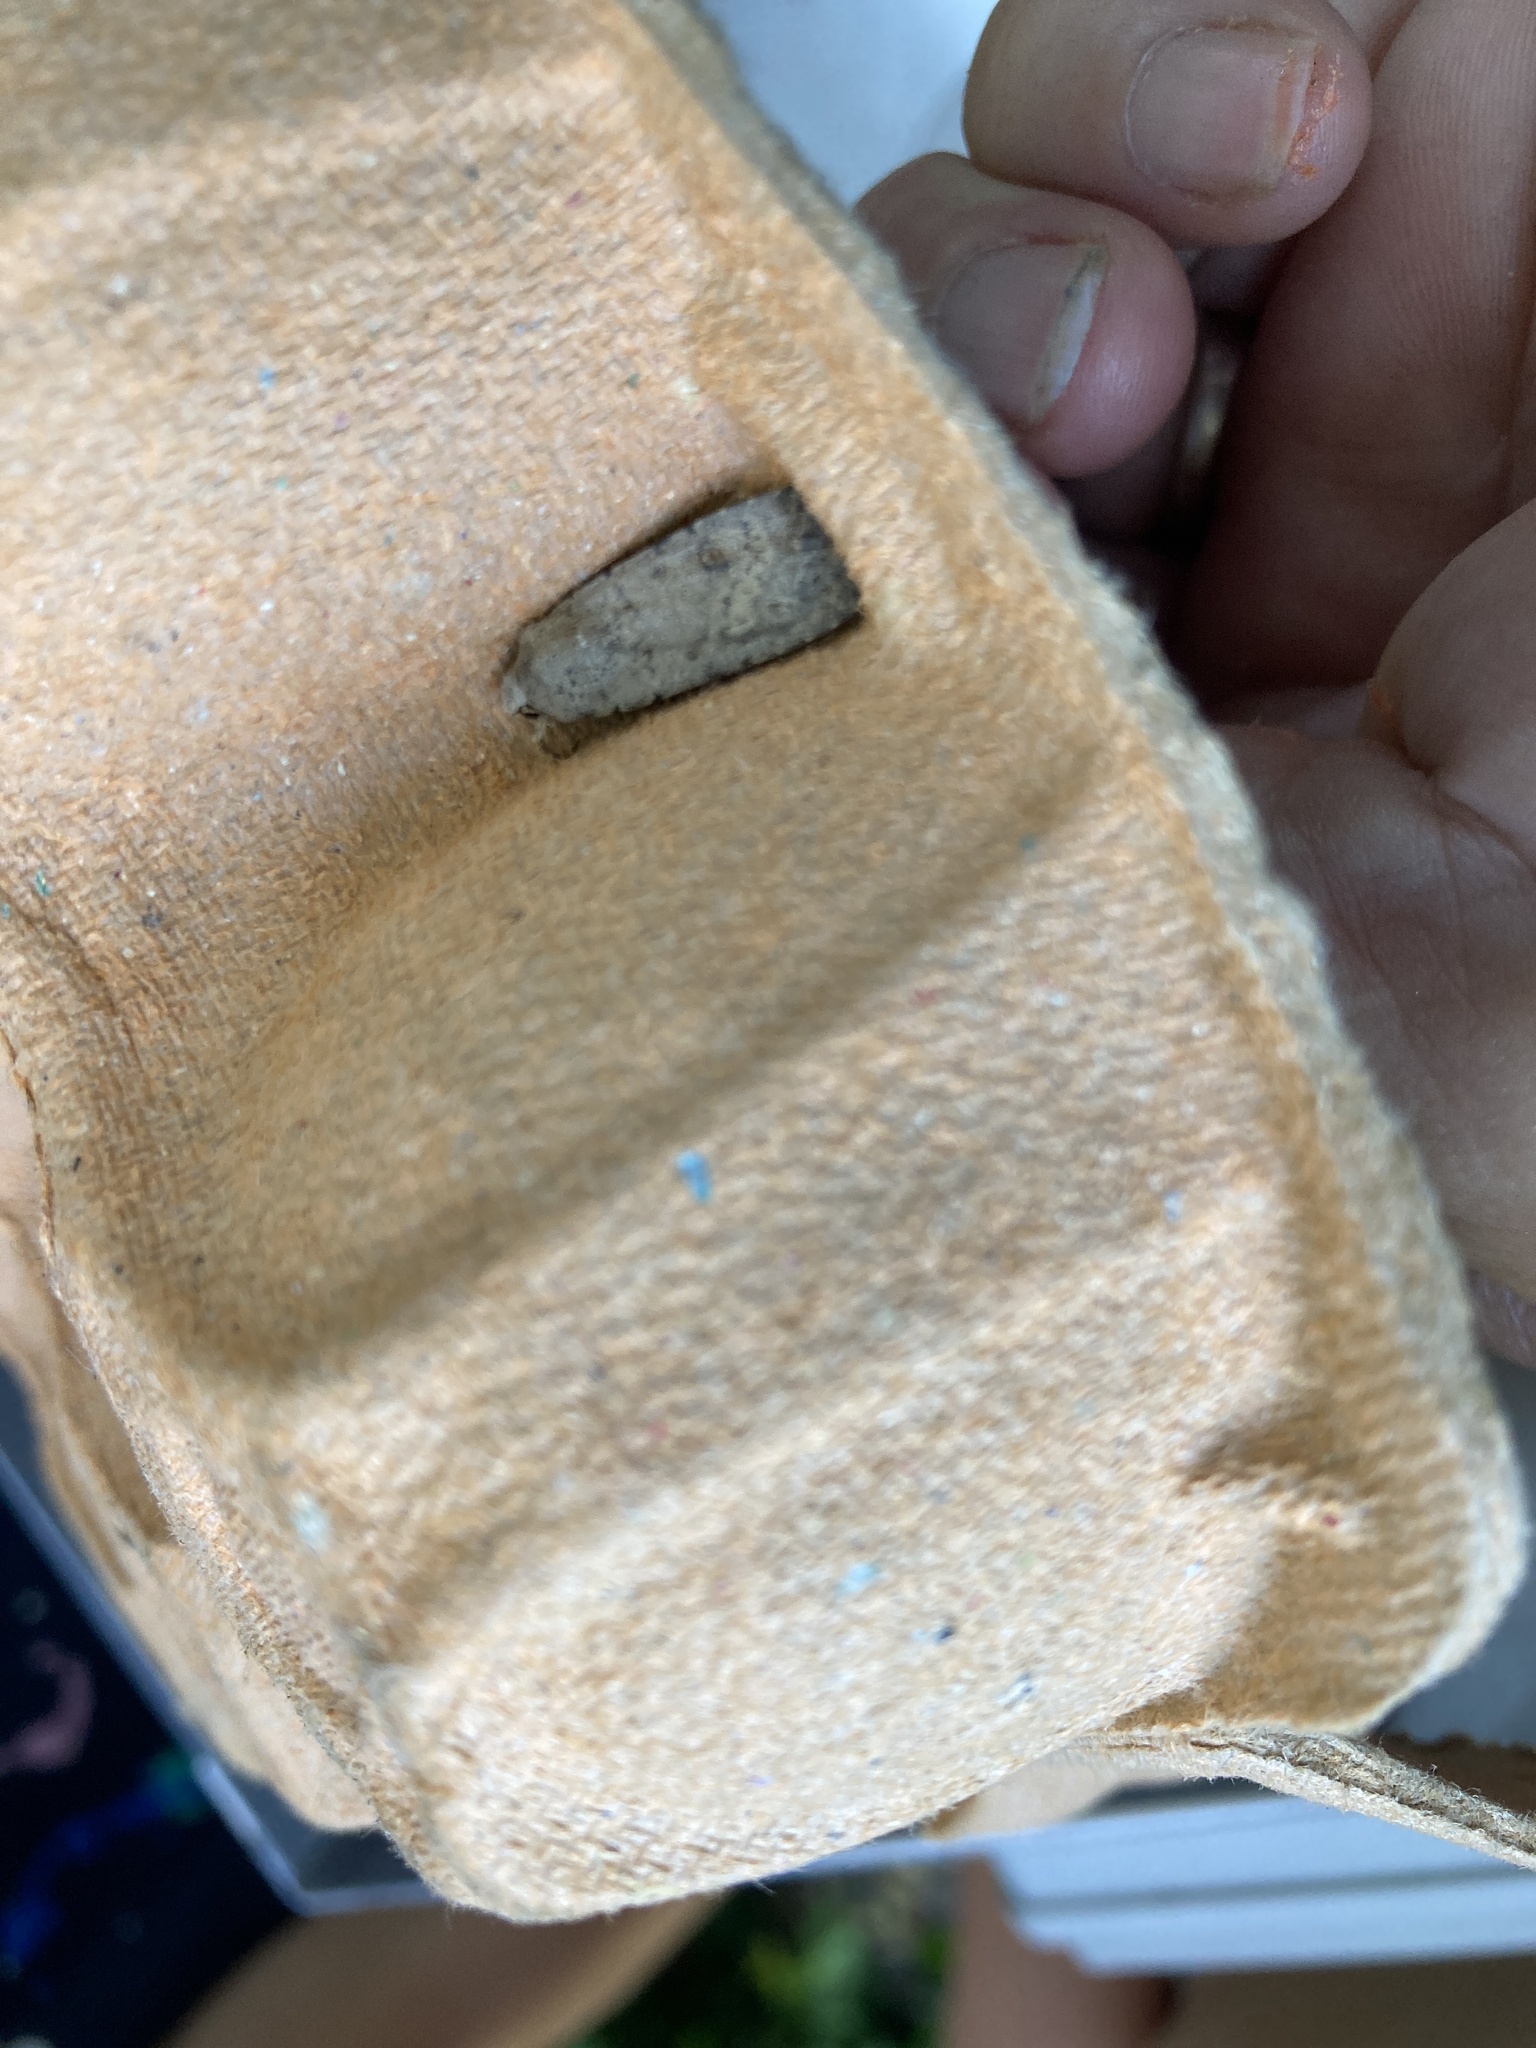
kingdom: Animalia
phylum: Arthropoda
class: Insecta
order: Lepidoptera
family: Noctuidae
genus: Caradrina
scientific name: Caradrina clavipalpis
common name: Pale mottled willow
